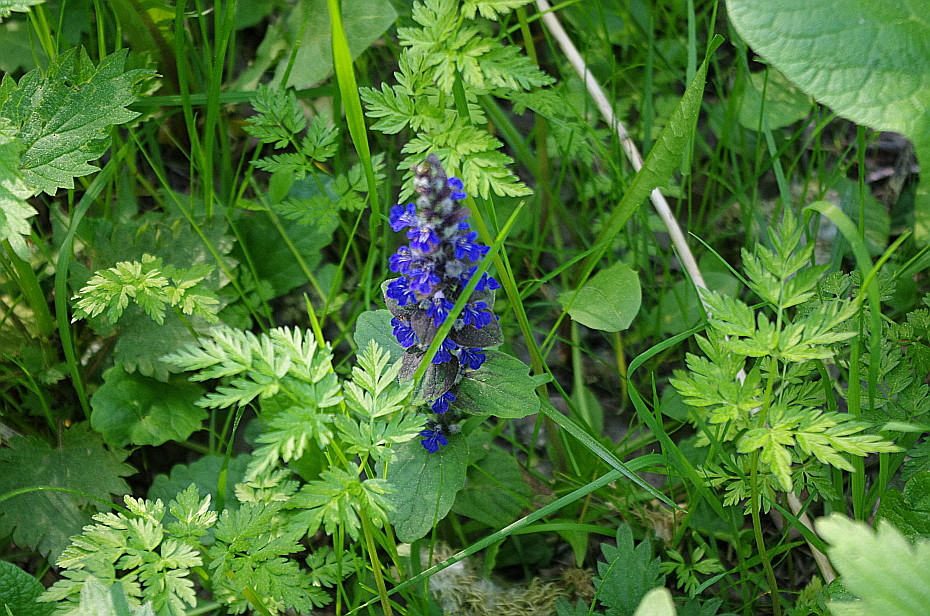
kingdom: Plantae
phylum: Tracheophyta
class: Magnoliopsida
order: Lamiales
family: Lamiaceae
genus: Ajuga
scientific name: Ajuga reptans
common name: Bugle
